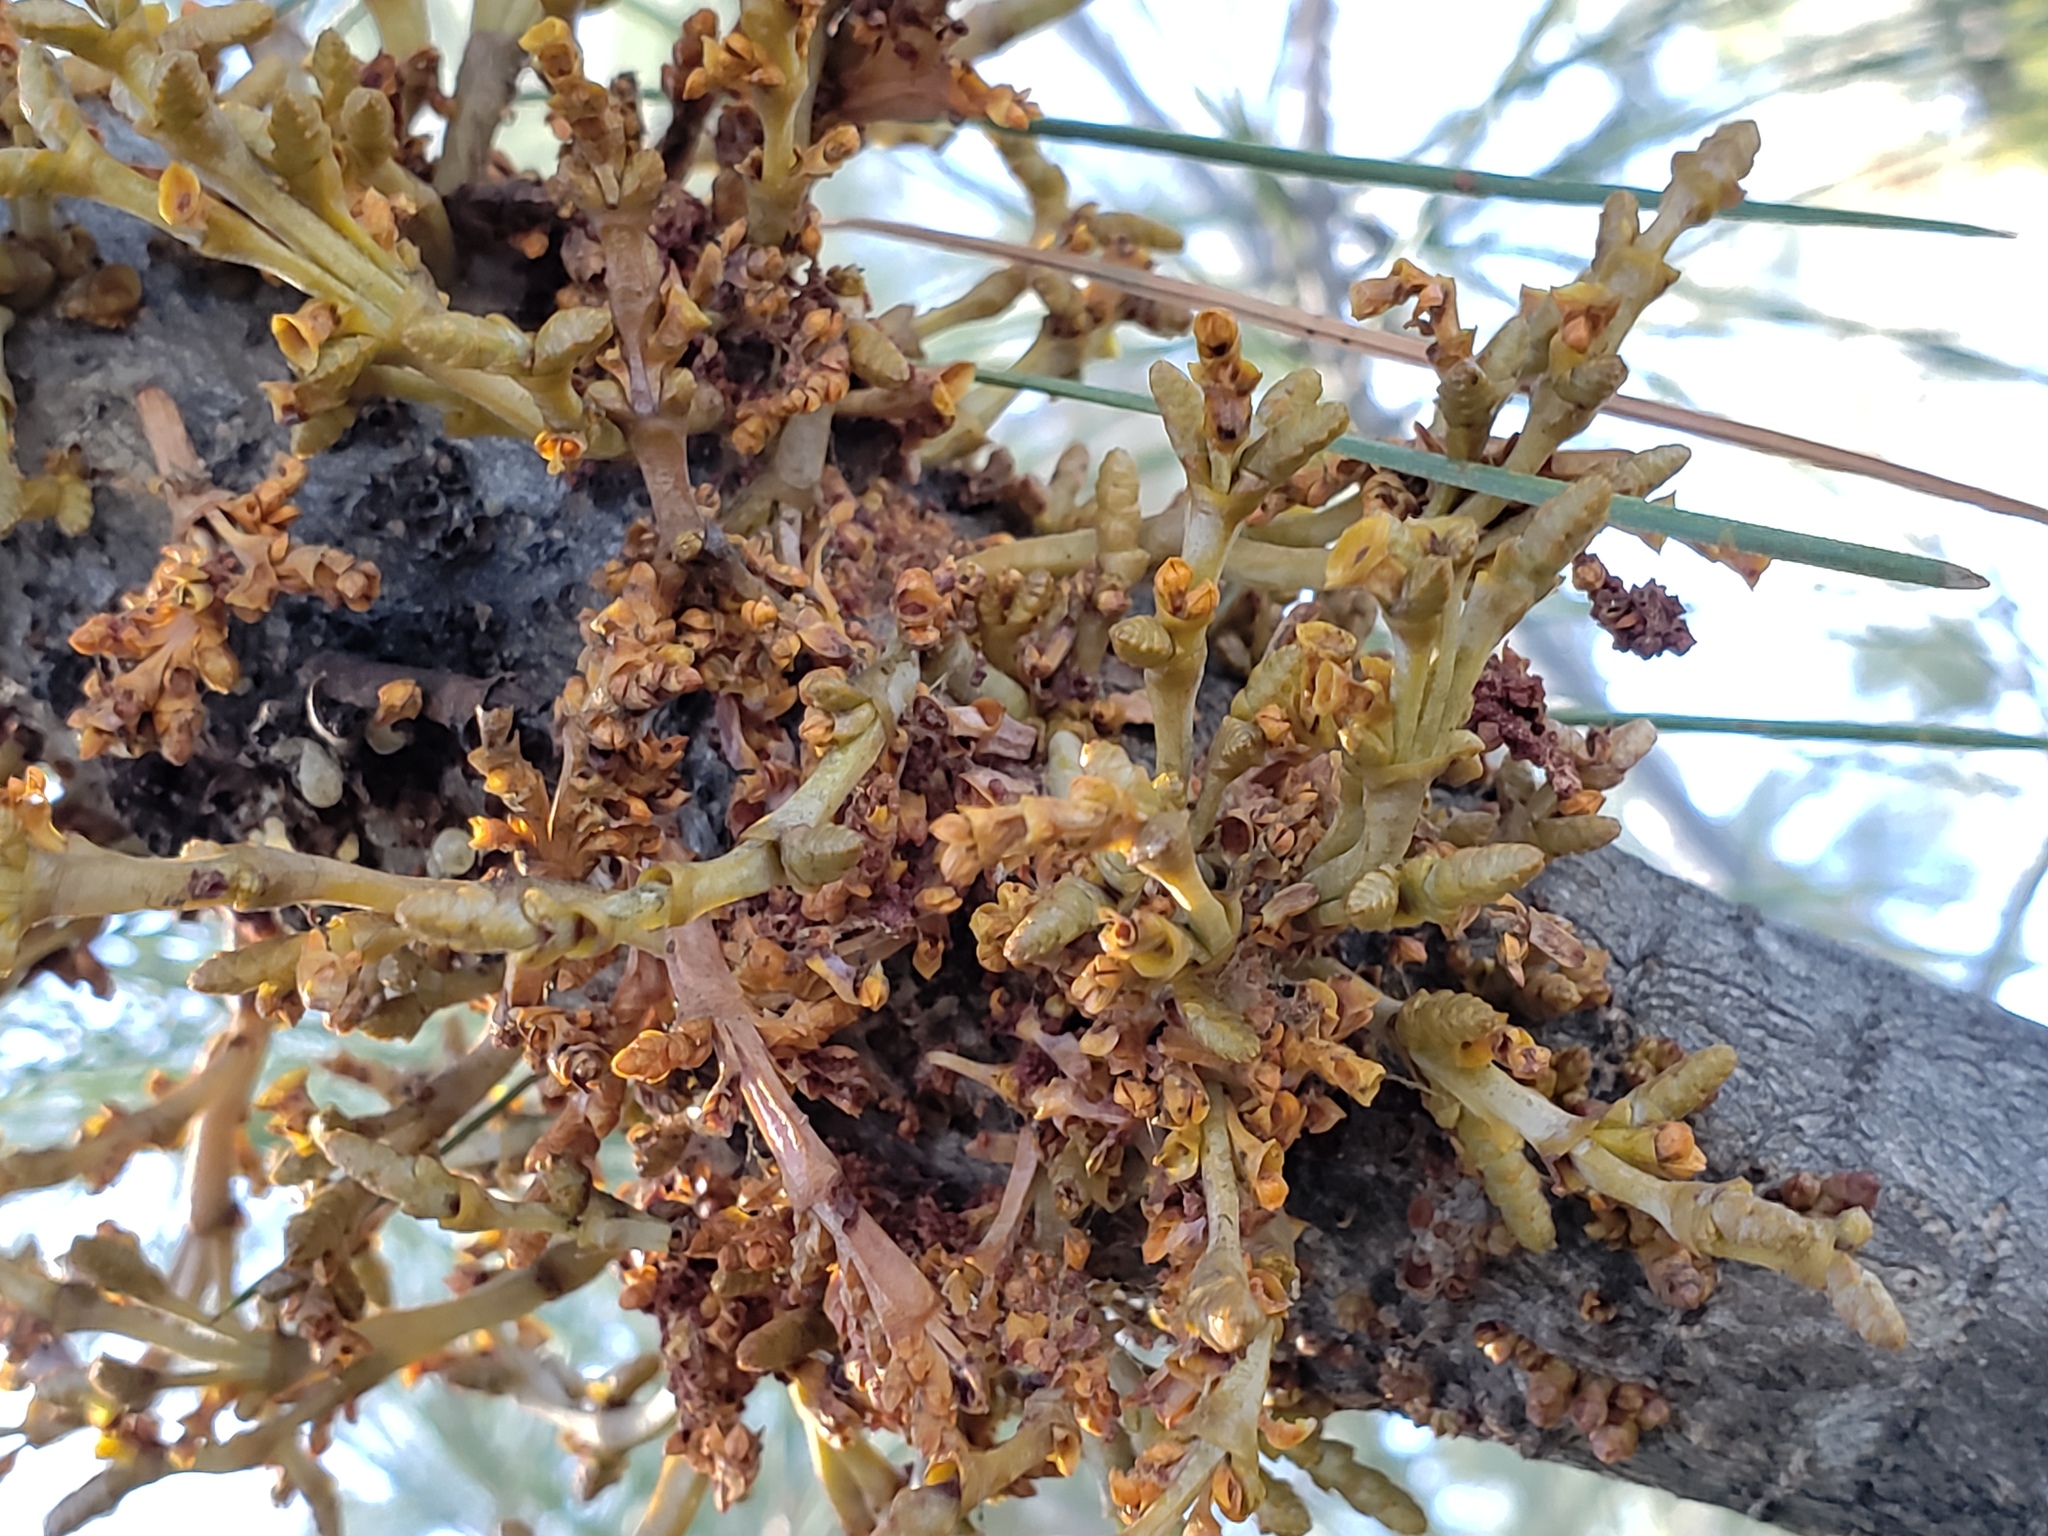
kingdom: Plantae
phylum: Tracheophyta
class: Magnoliopsida
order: Santalales
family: Viscaceae
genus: Arceuthobium
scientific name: Arceuthobium campylopodum
